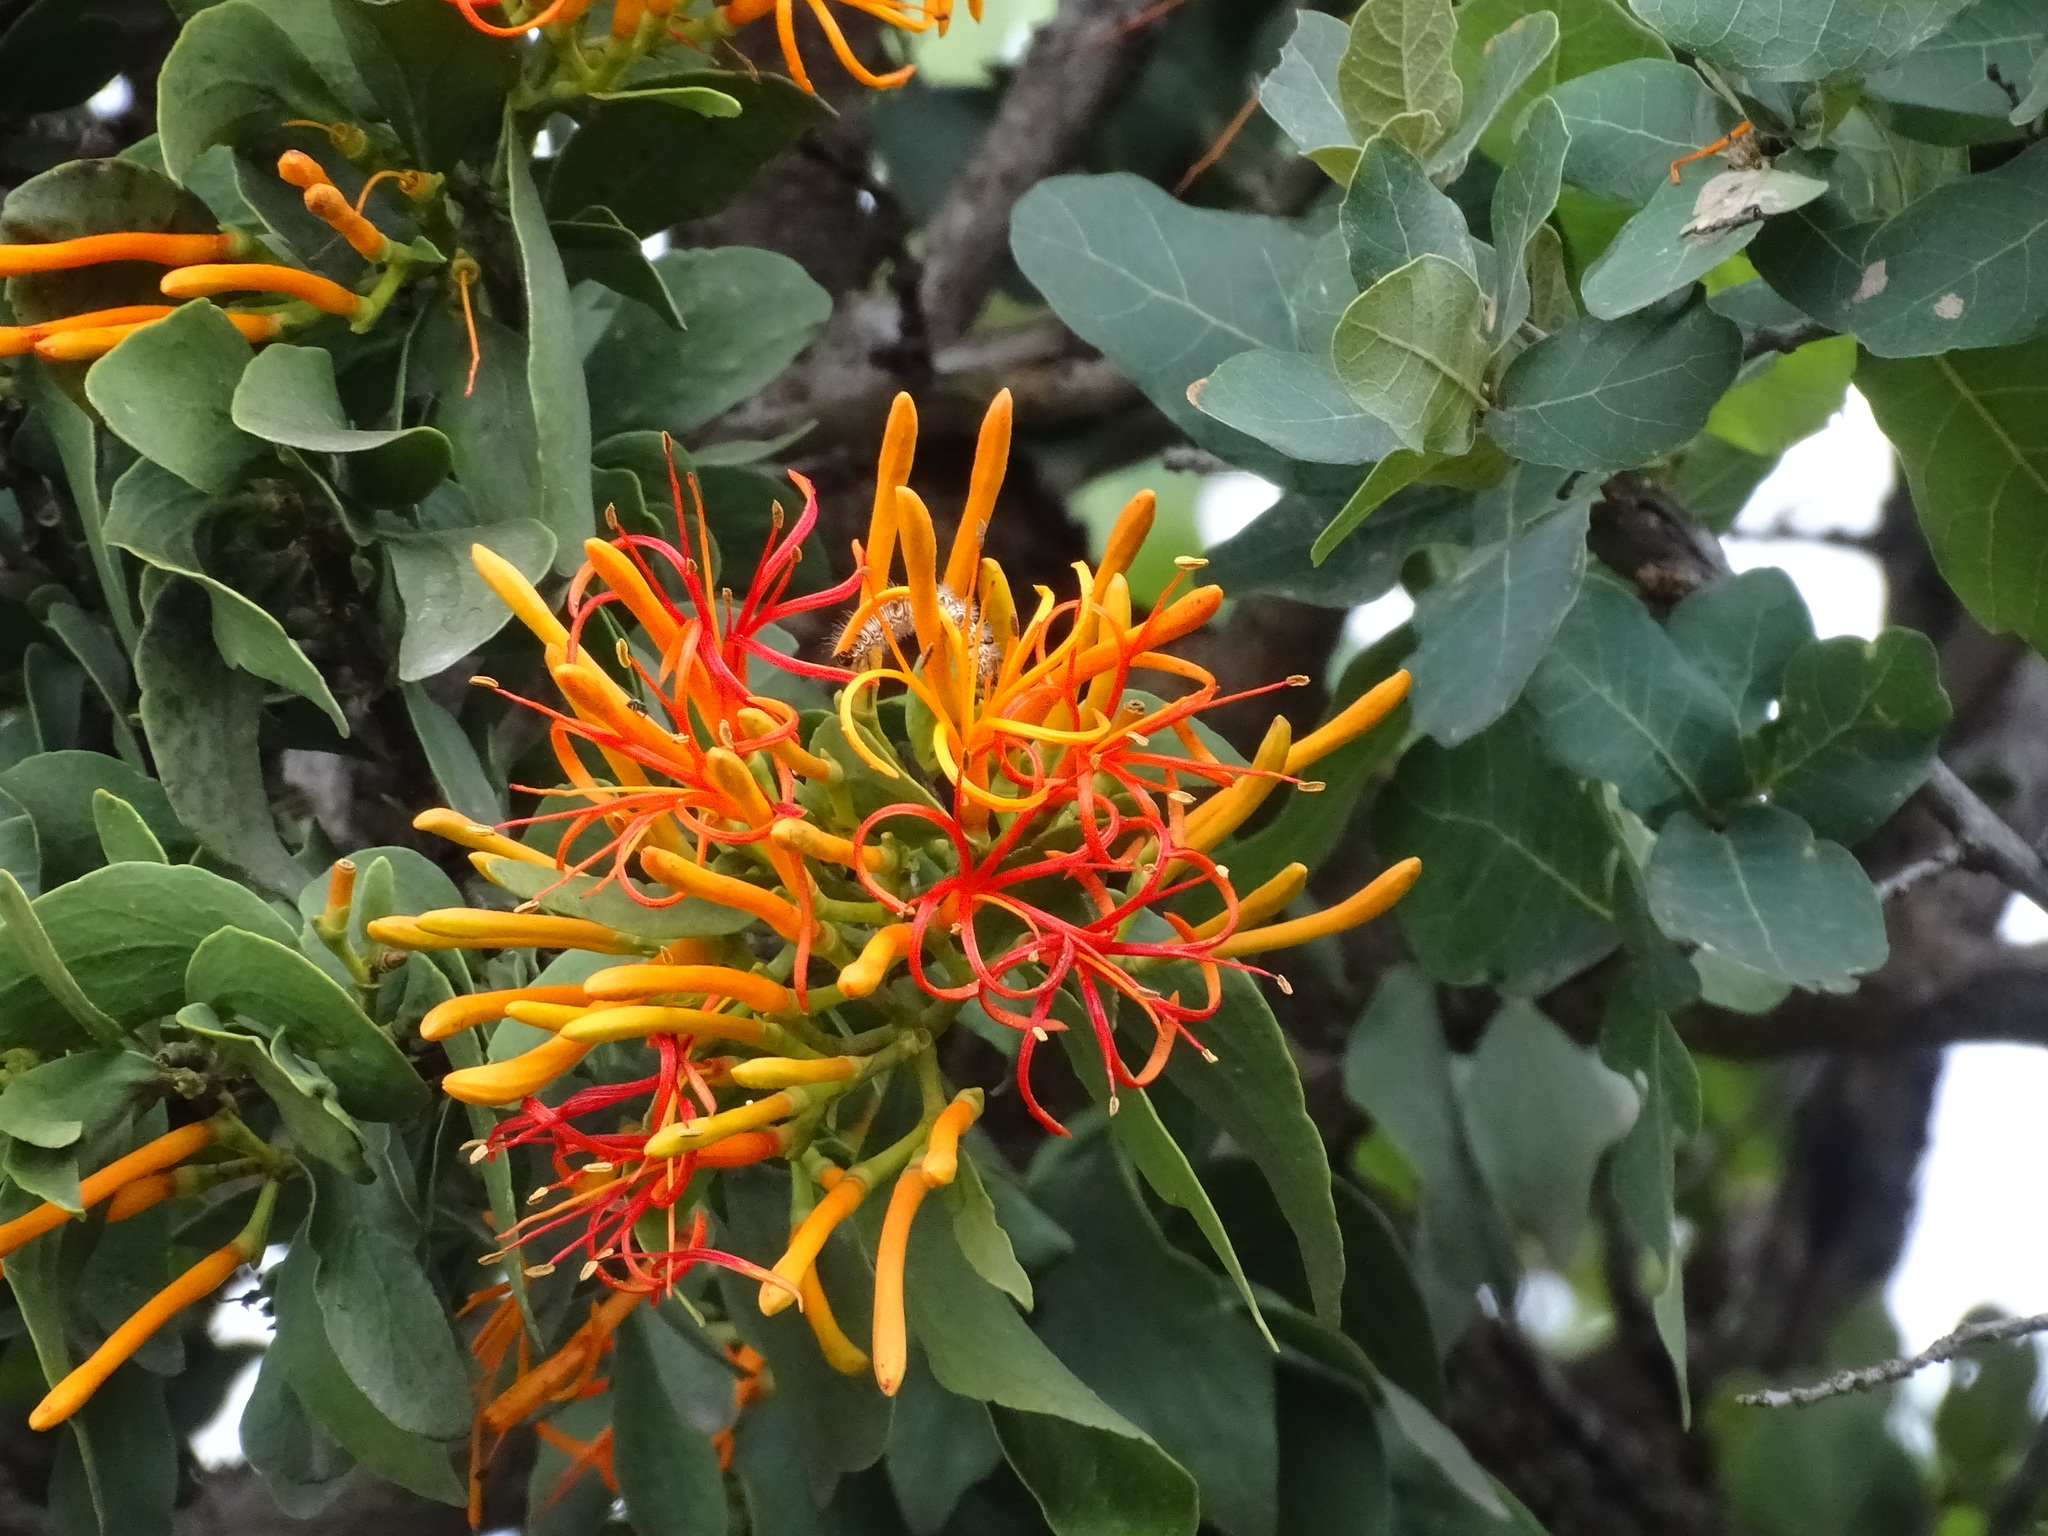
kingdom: Plantae
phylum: Tracheophyta
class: Magnoliopsida
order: Santalales
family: Loranthaceae
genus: Psittacanthus
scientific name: Psittacanthus schiedeanus
